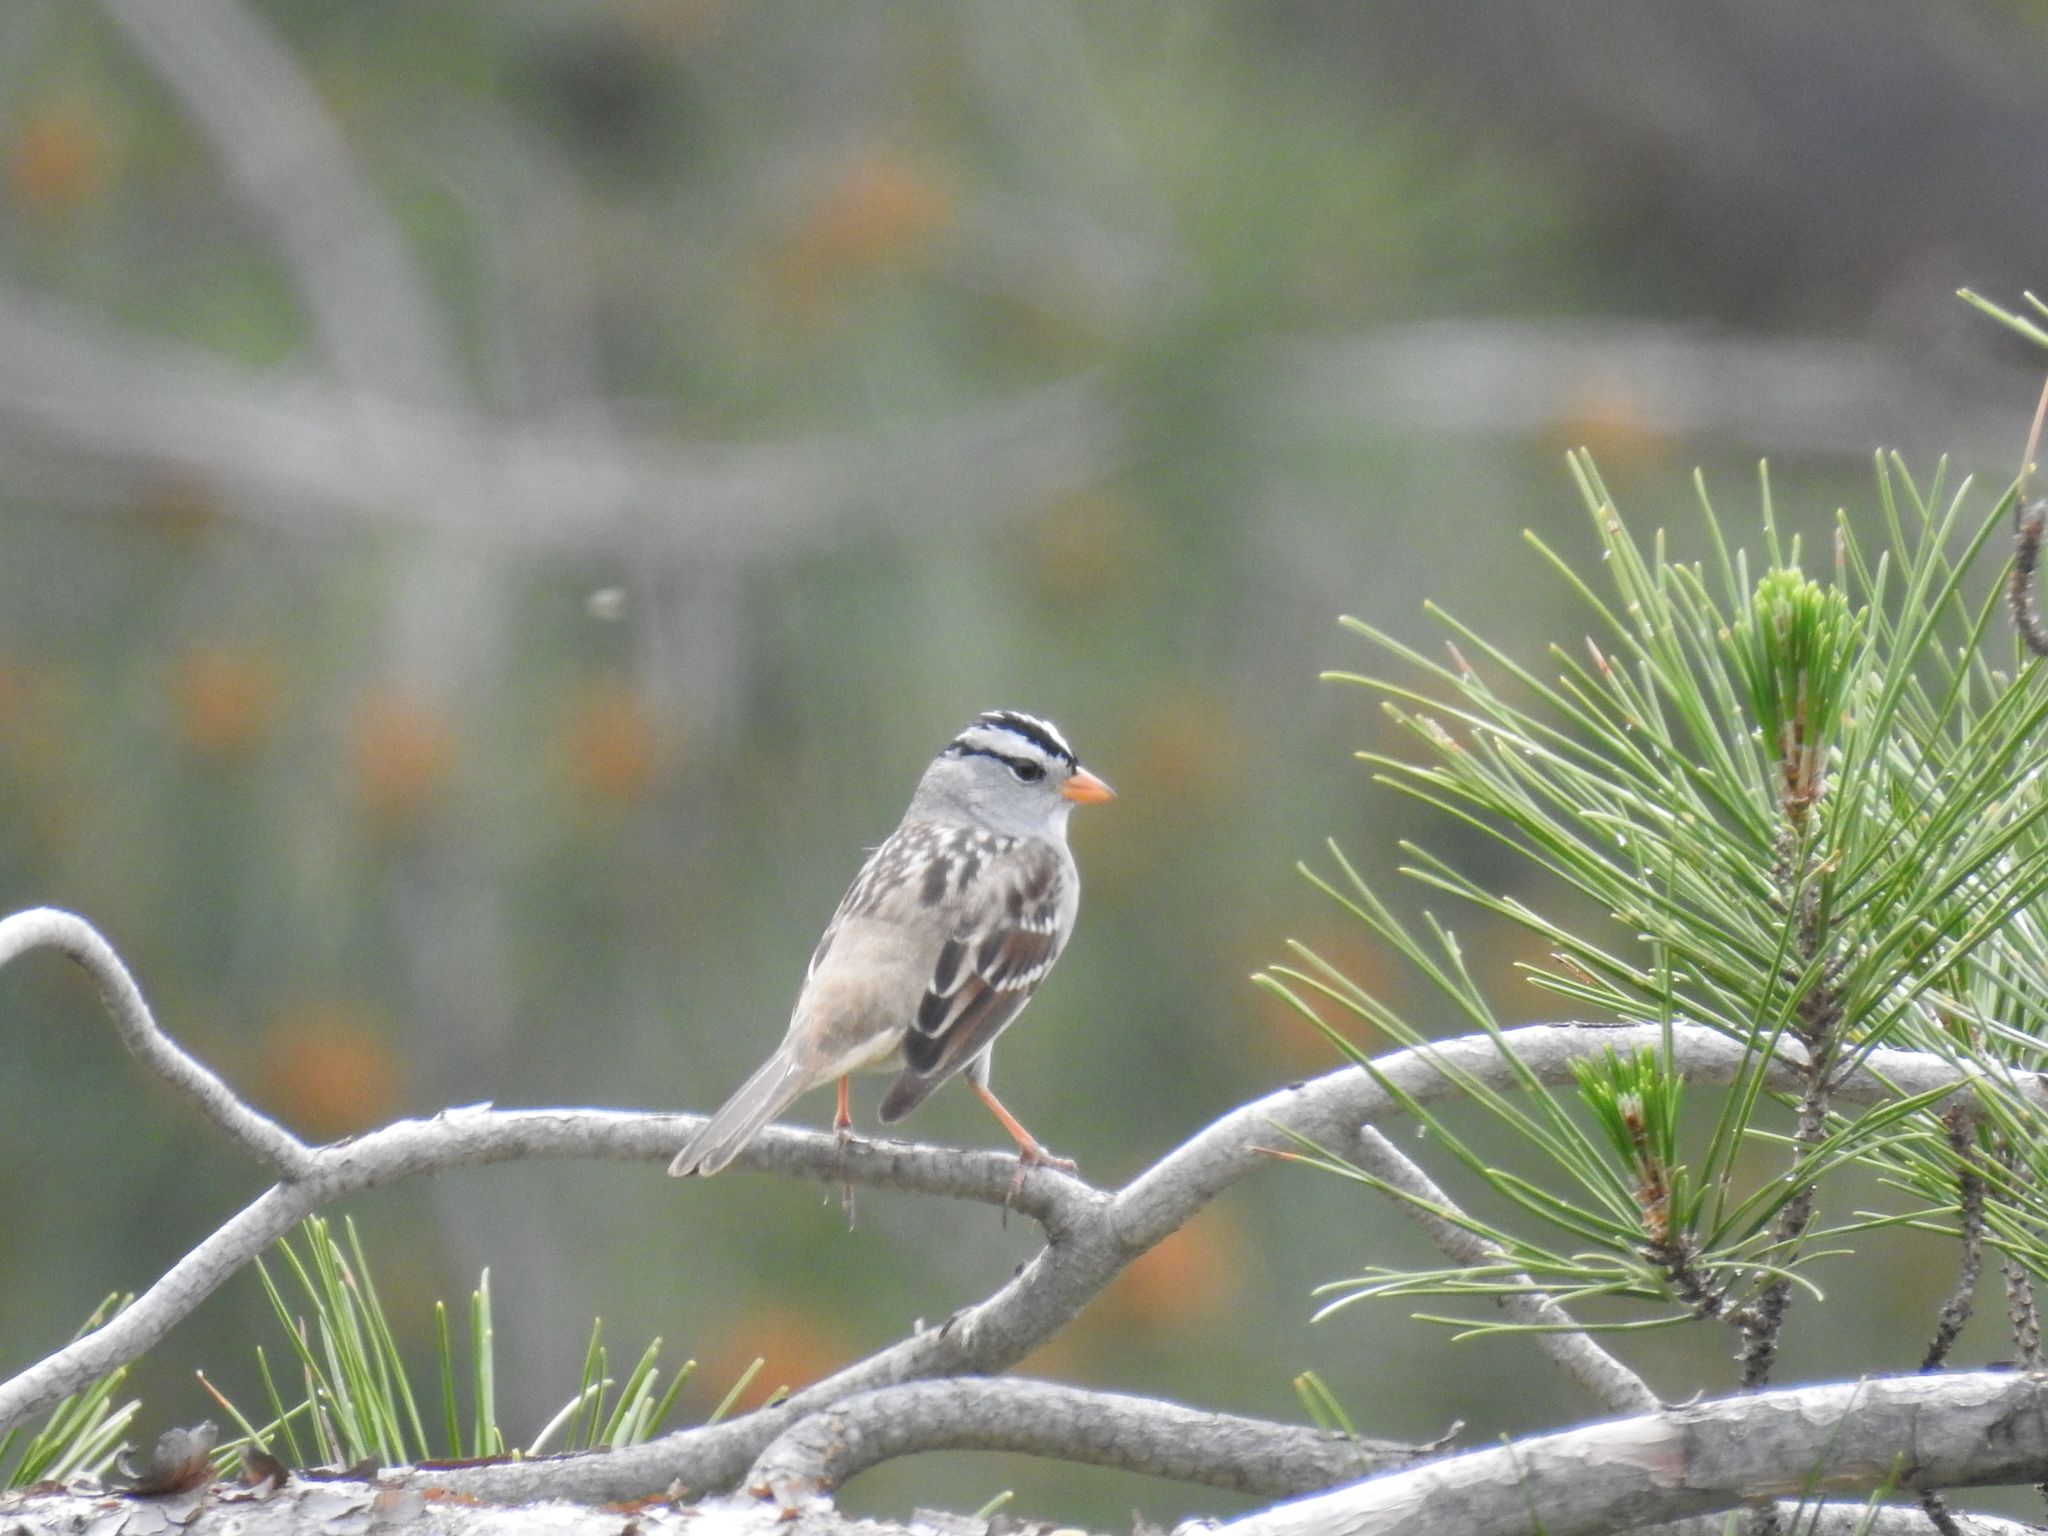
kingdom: Animalia
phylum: Chordata
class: Aves
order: Passeriformes
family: Passerellidae
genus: Zonotrichia
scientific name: Zonotrichia leucophrys
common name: White-crowned sparrow
